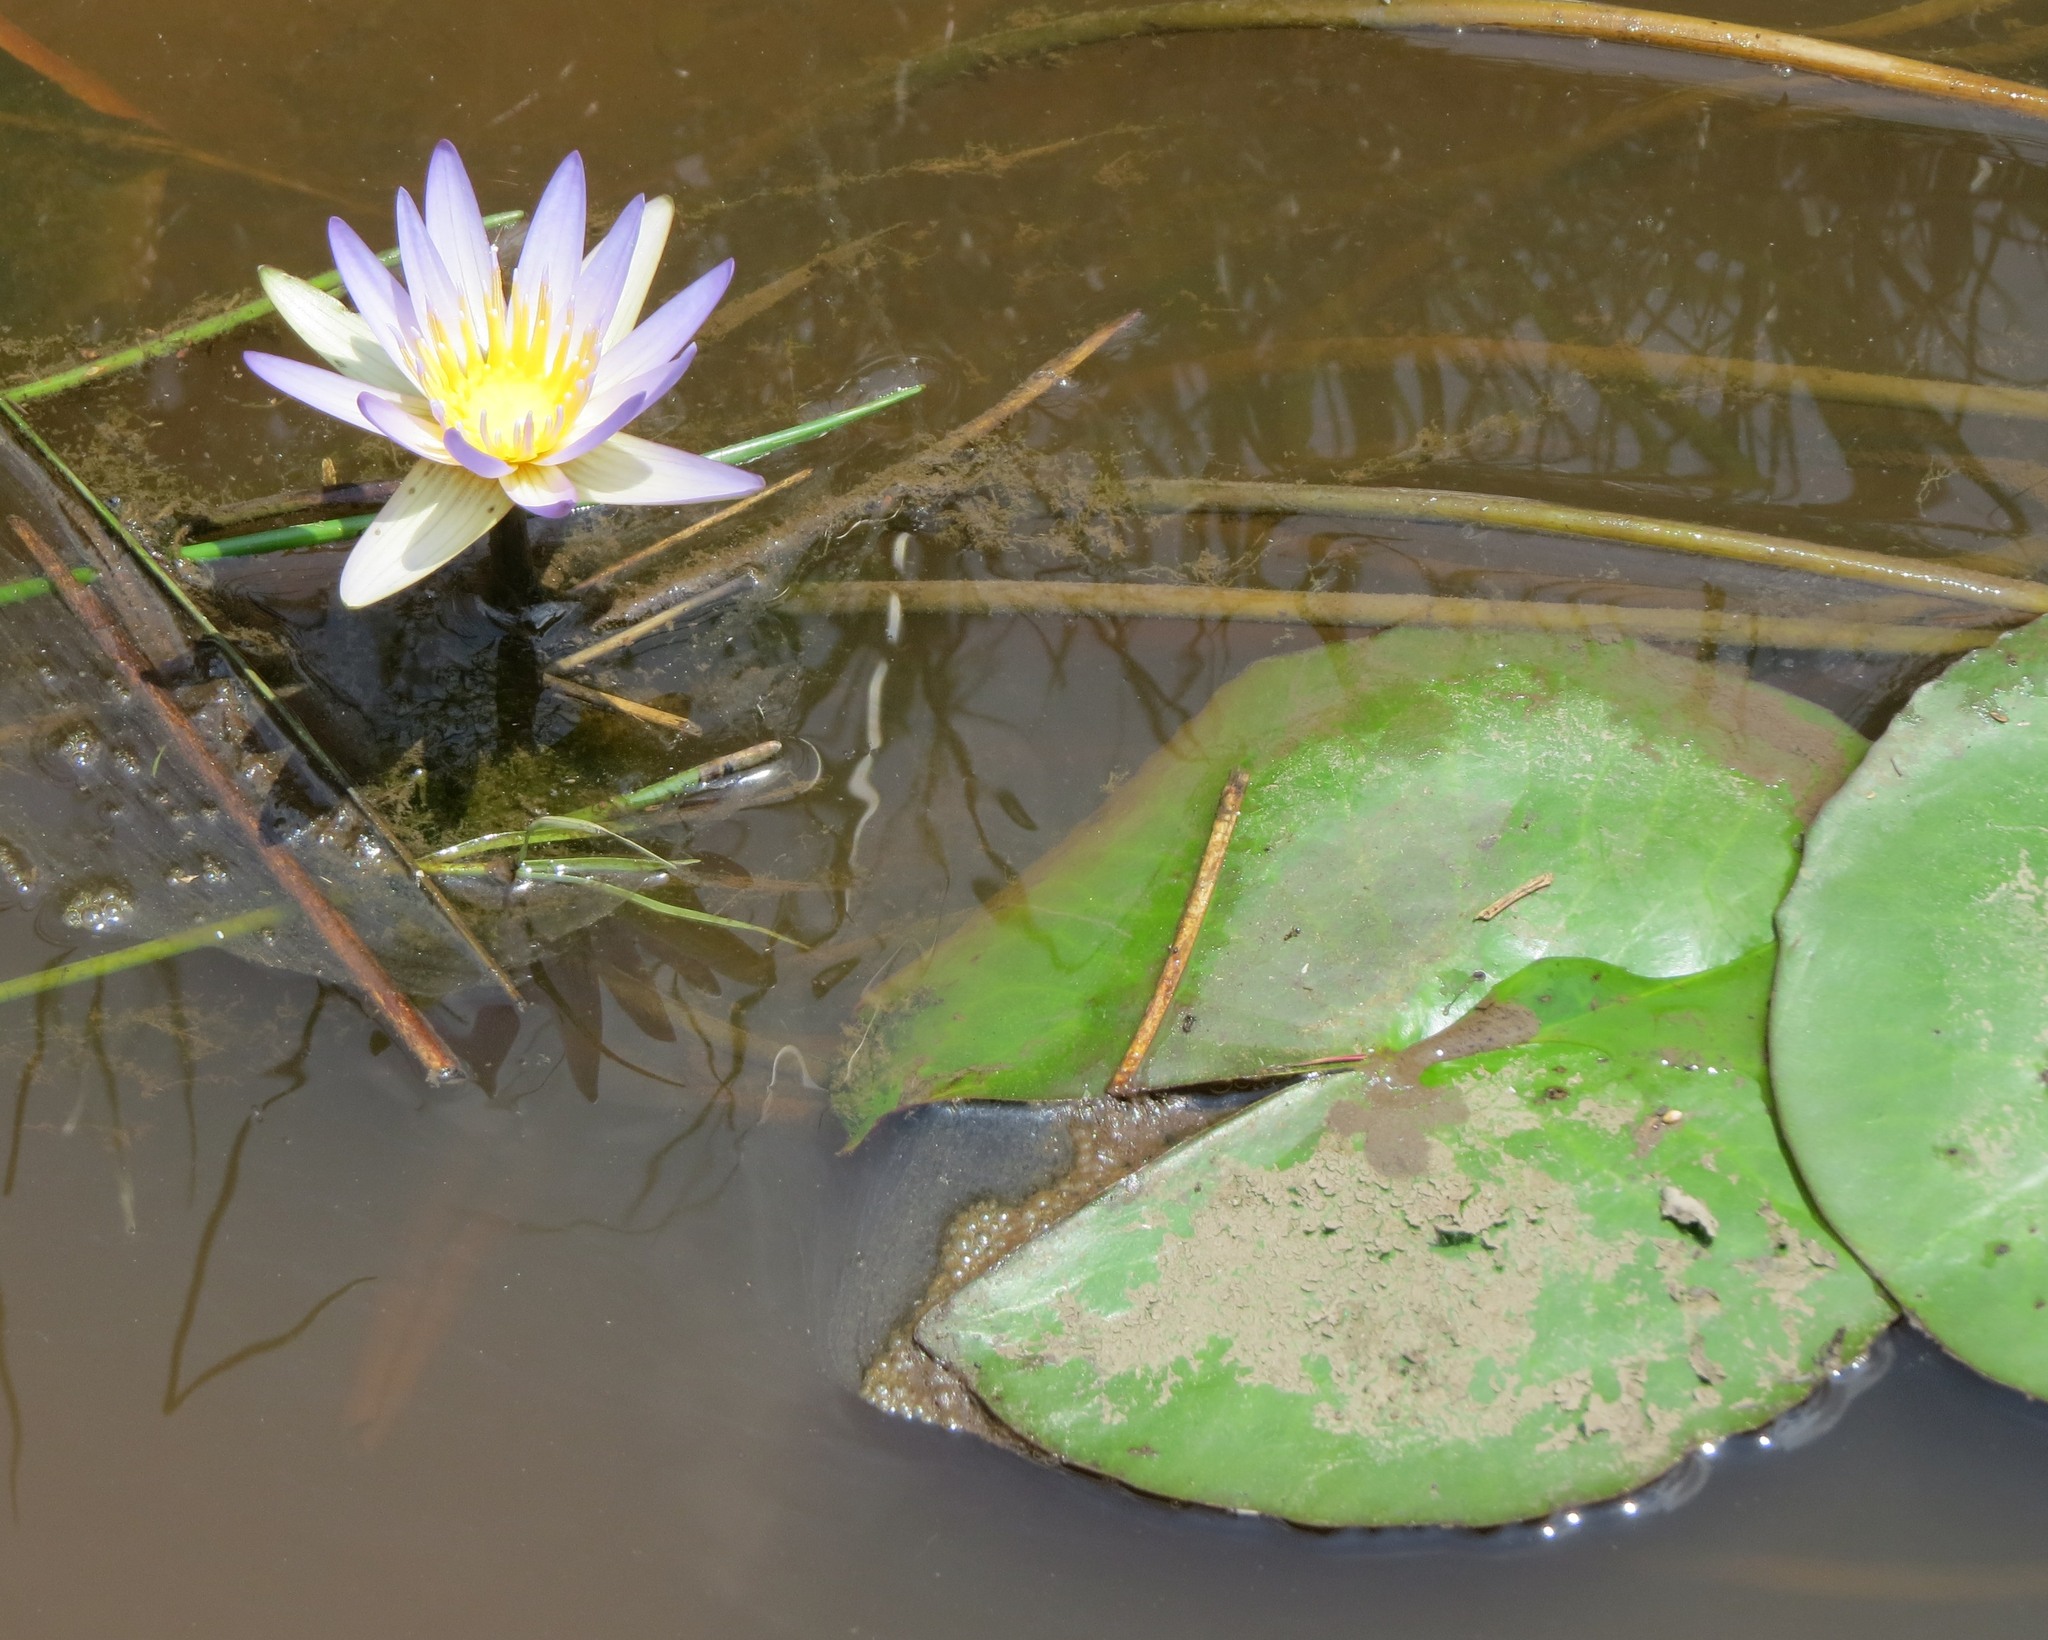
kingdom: Plantae
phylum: Tracheophyta
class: Magnoliopsida
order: Nymphaeales
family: Nymphaeaceae
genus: Nymphaea
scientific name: Nymphaea nouchali
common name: Blue lotus
